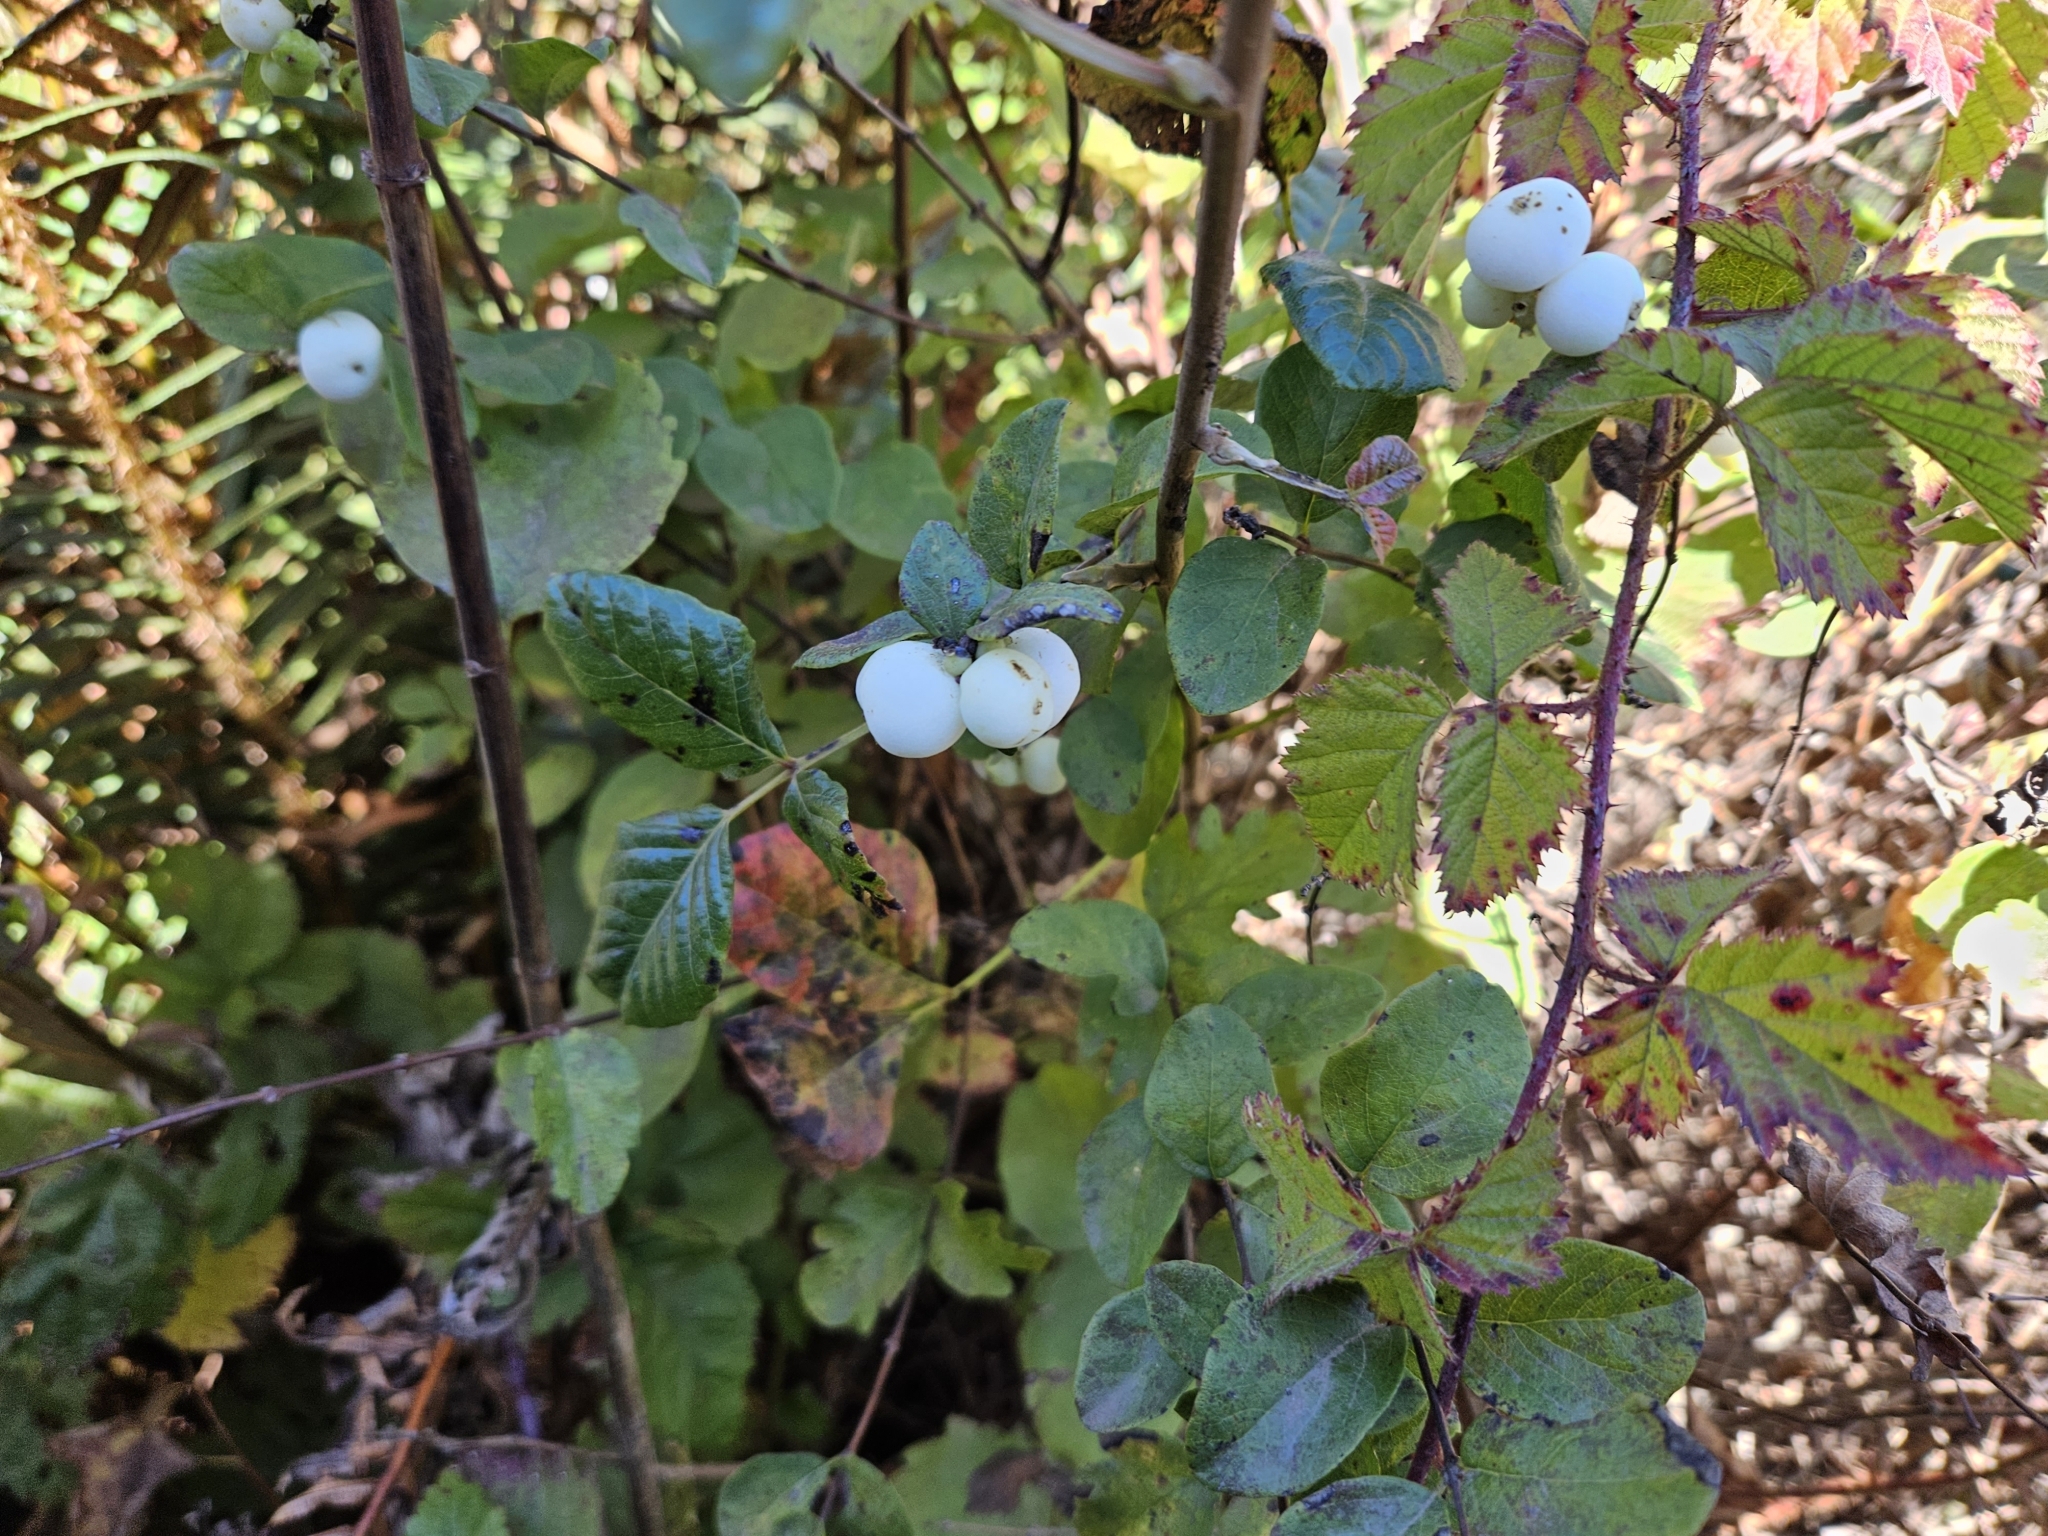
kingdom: Plantae
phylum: Tracheophyta
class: Magnoliopsida
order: Dipsacales
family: Caprifoliaceae
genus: Symphoricarpos
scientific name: Symphoricarpos albus
